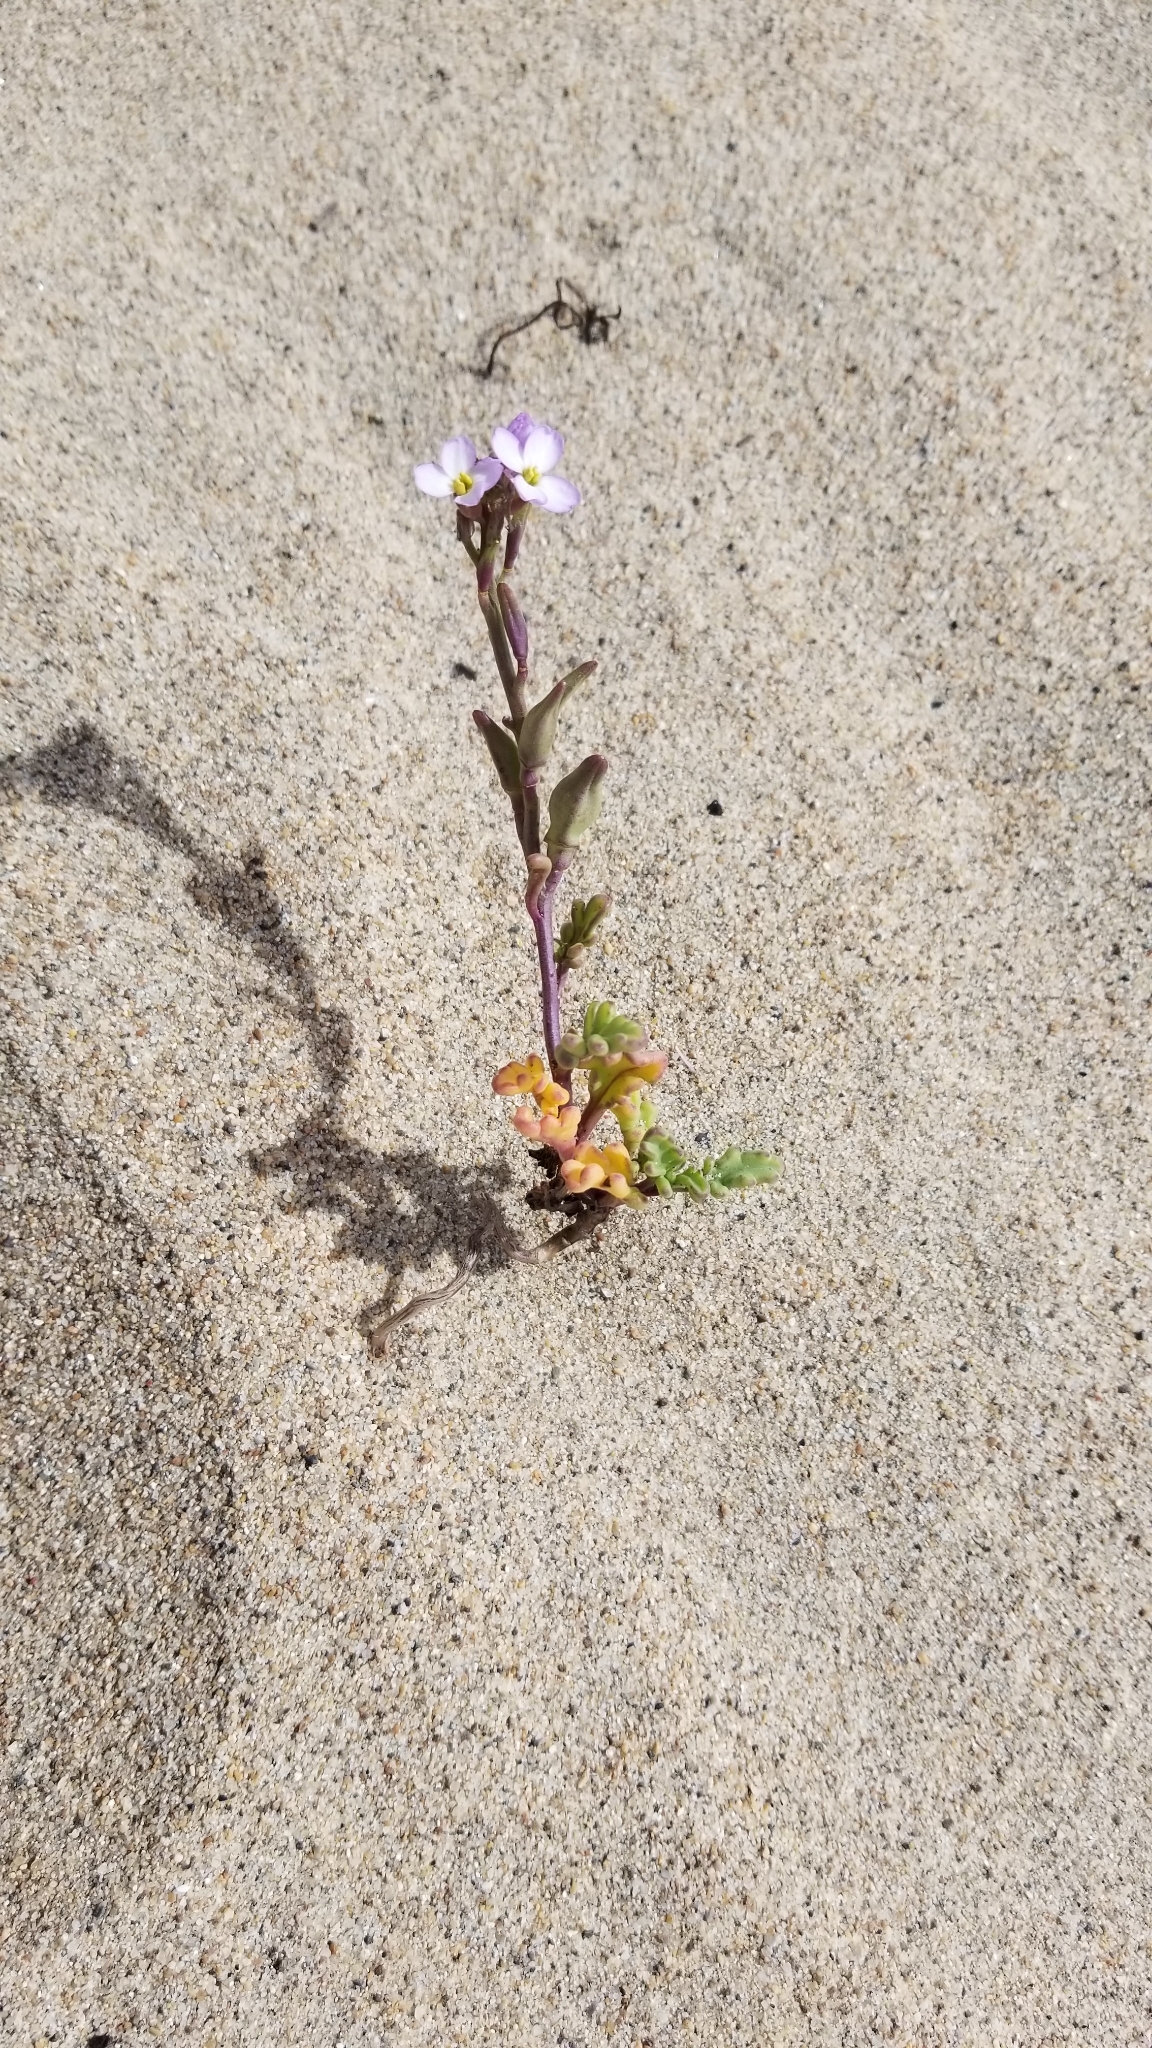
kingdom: Plantae
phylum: Tracheophyta
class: Magnoliopsida
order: Brassicales
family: Brassicaceae
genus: Cakile
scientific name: Cakile maritima
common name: Sea rocket
